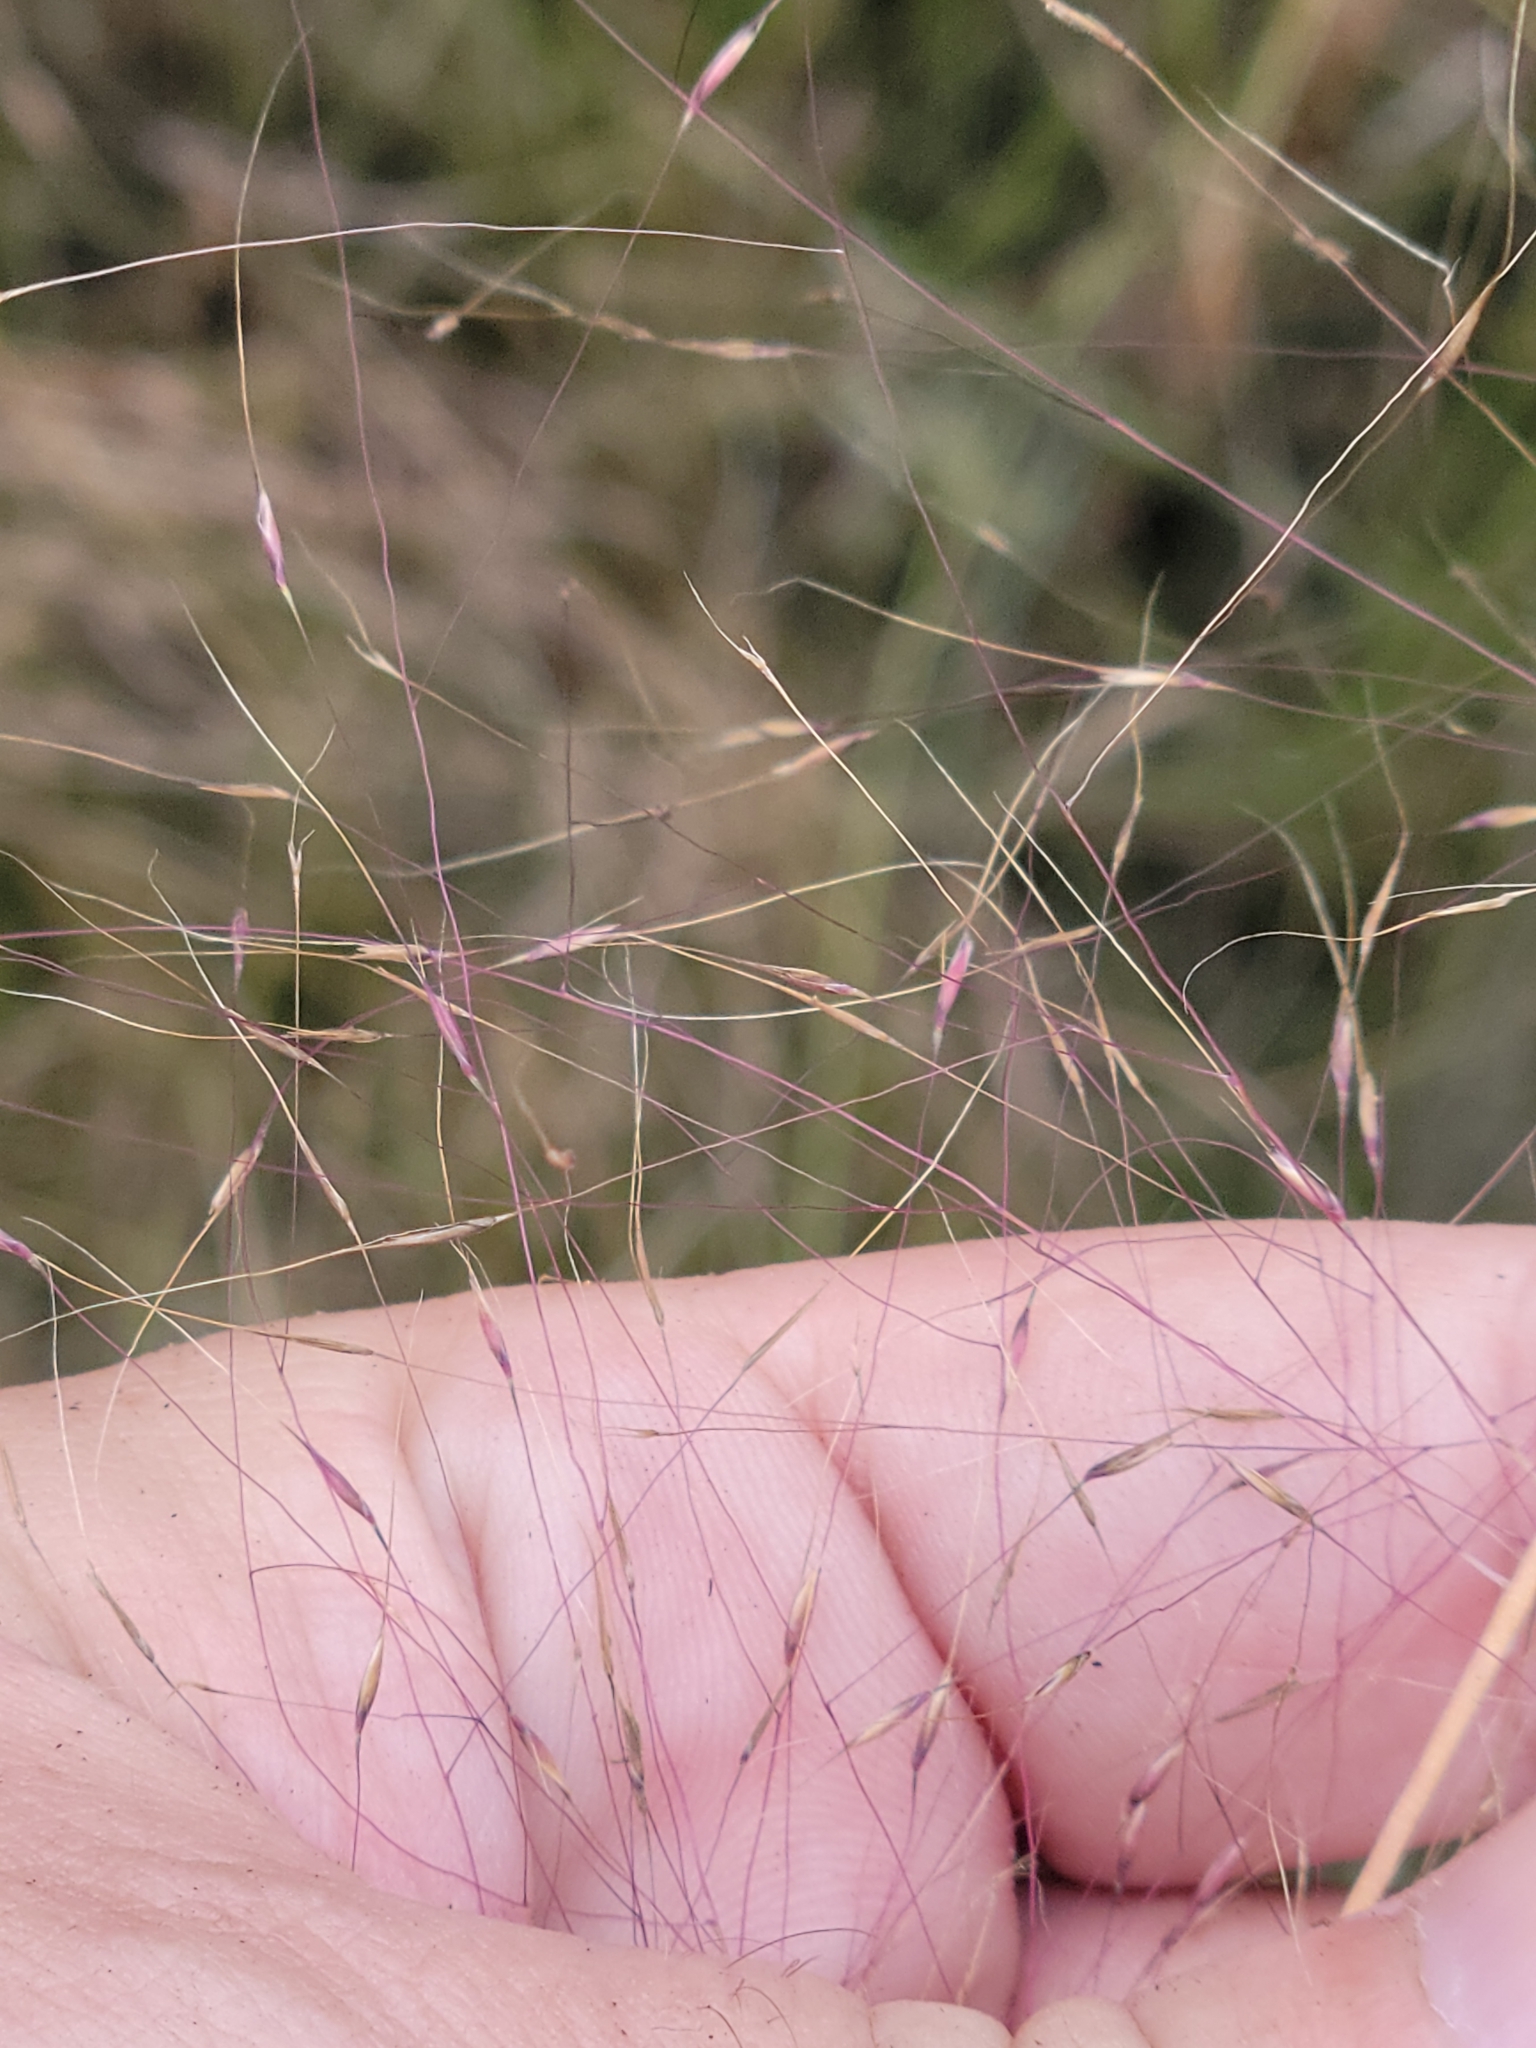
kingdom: Plantae
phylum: Tracheophyta
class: Liliopsida
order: Poales
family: Poaceae
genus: Muhlenbergia
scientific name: Muhlenbergia sericea
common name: Dune-hair grass
